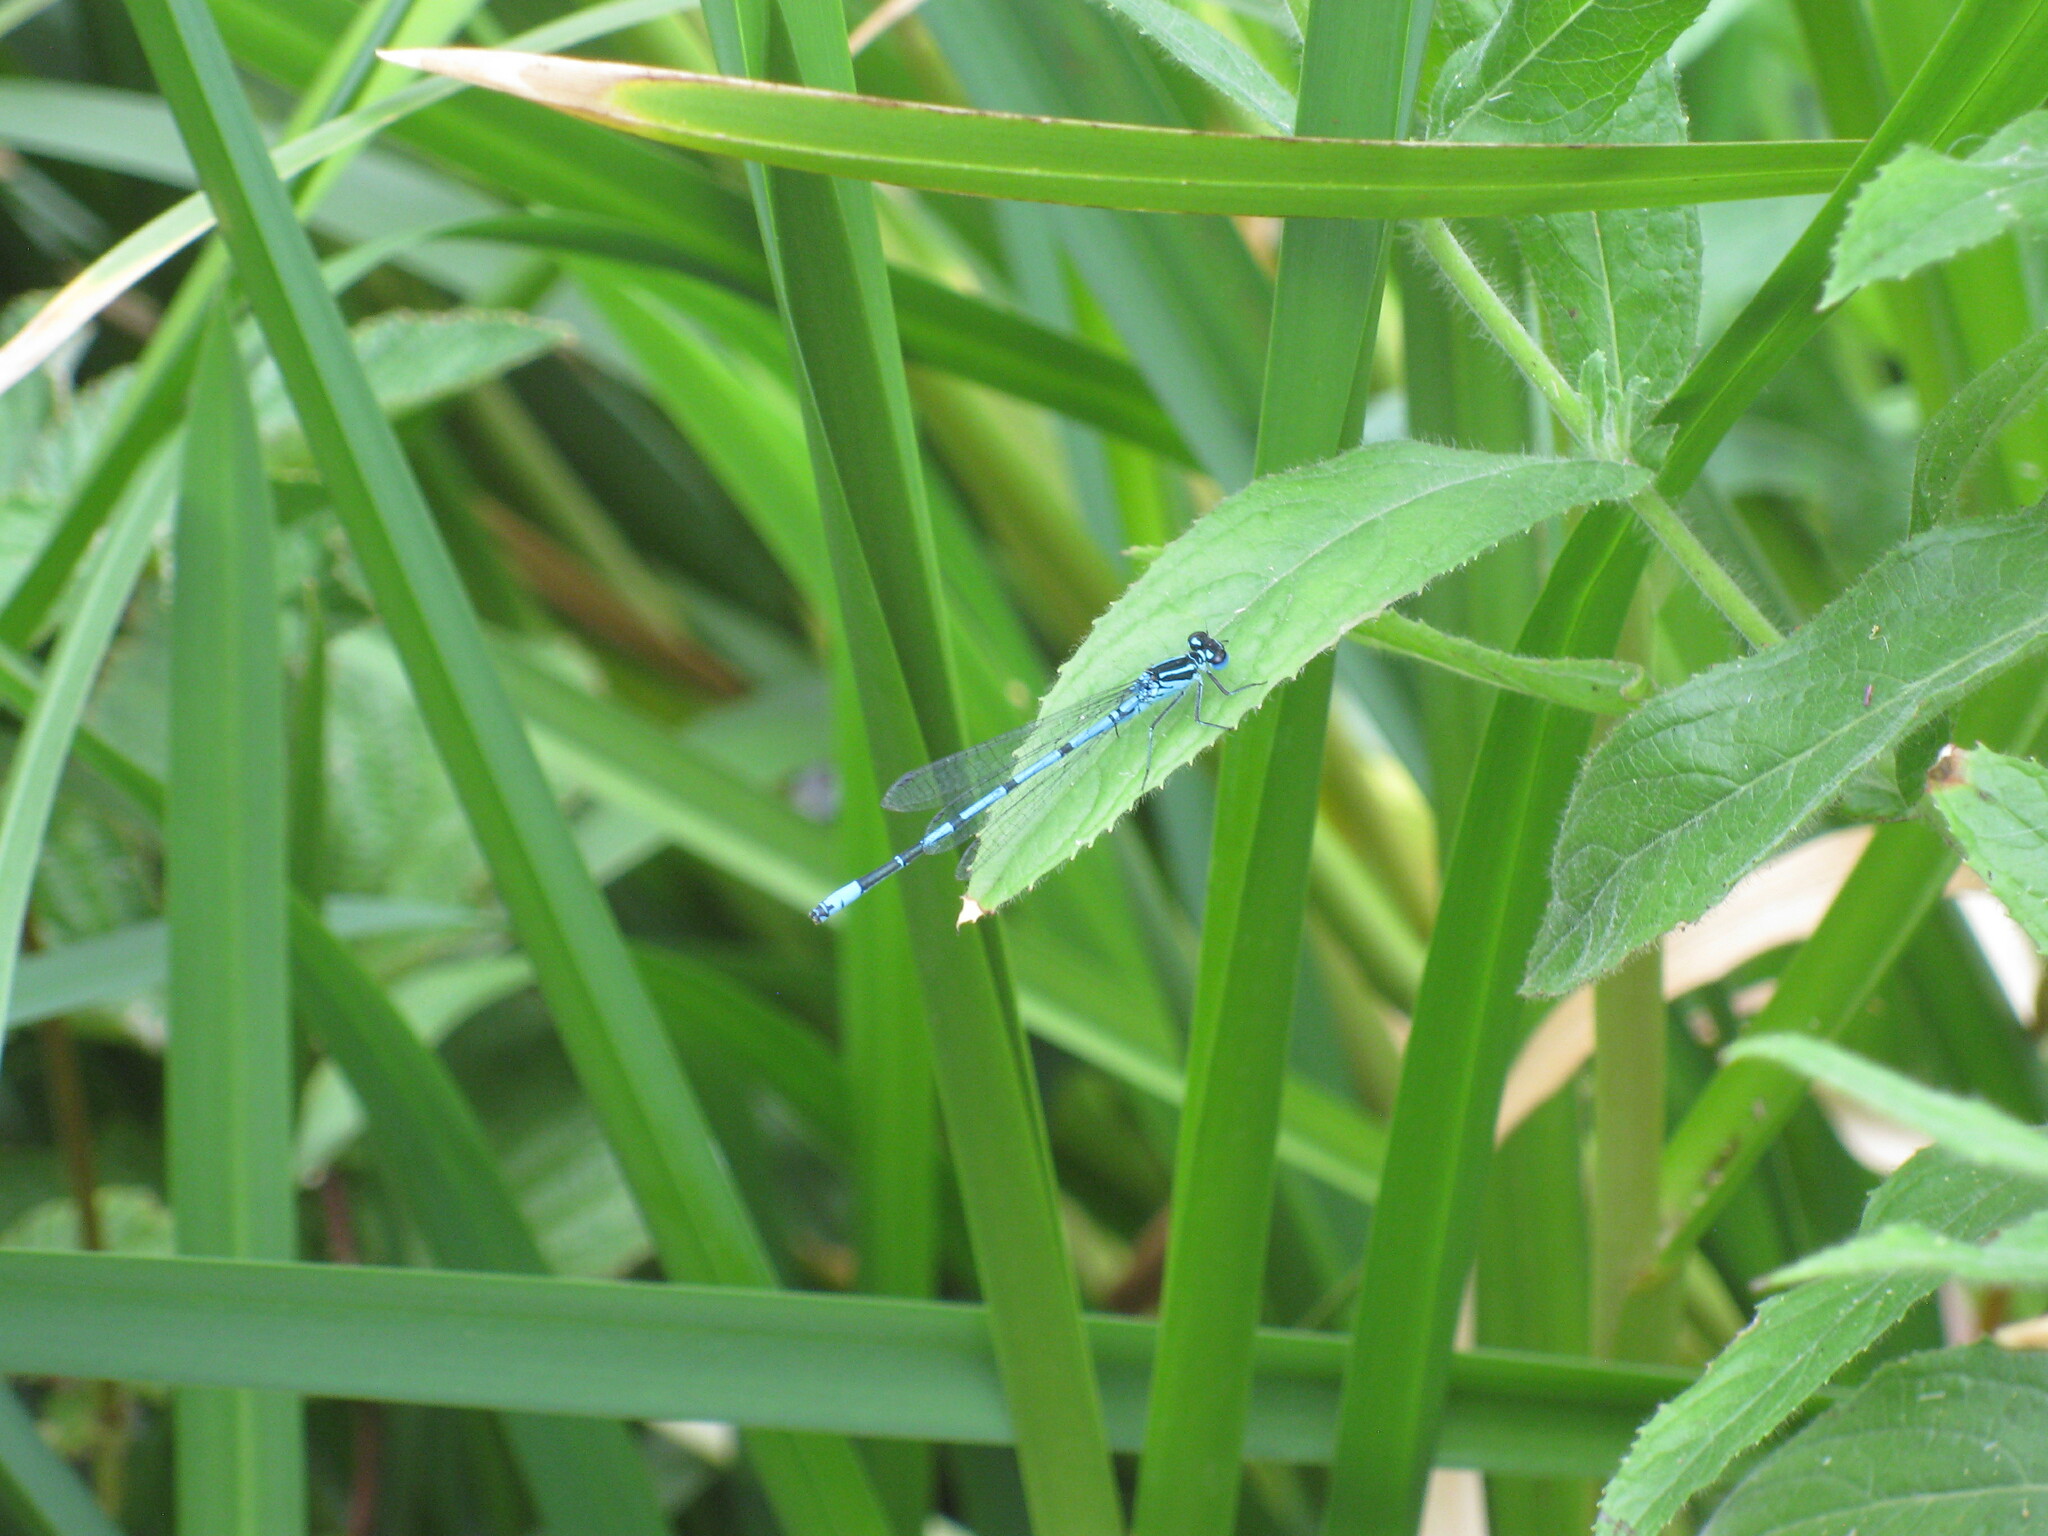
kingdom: Animalia
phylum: Arthropoda
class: Insecta
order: Odonata
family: Coenagrionidae
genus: Coenagrion
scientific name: Coenagrion puella
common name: Azure damselfly
